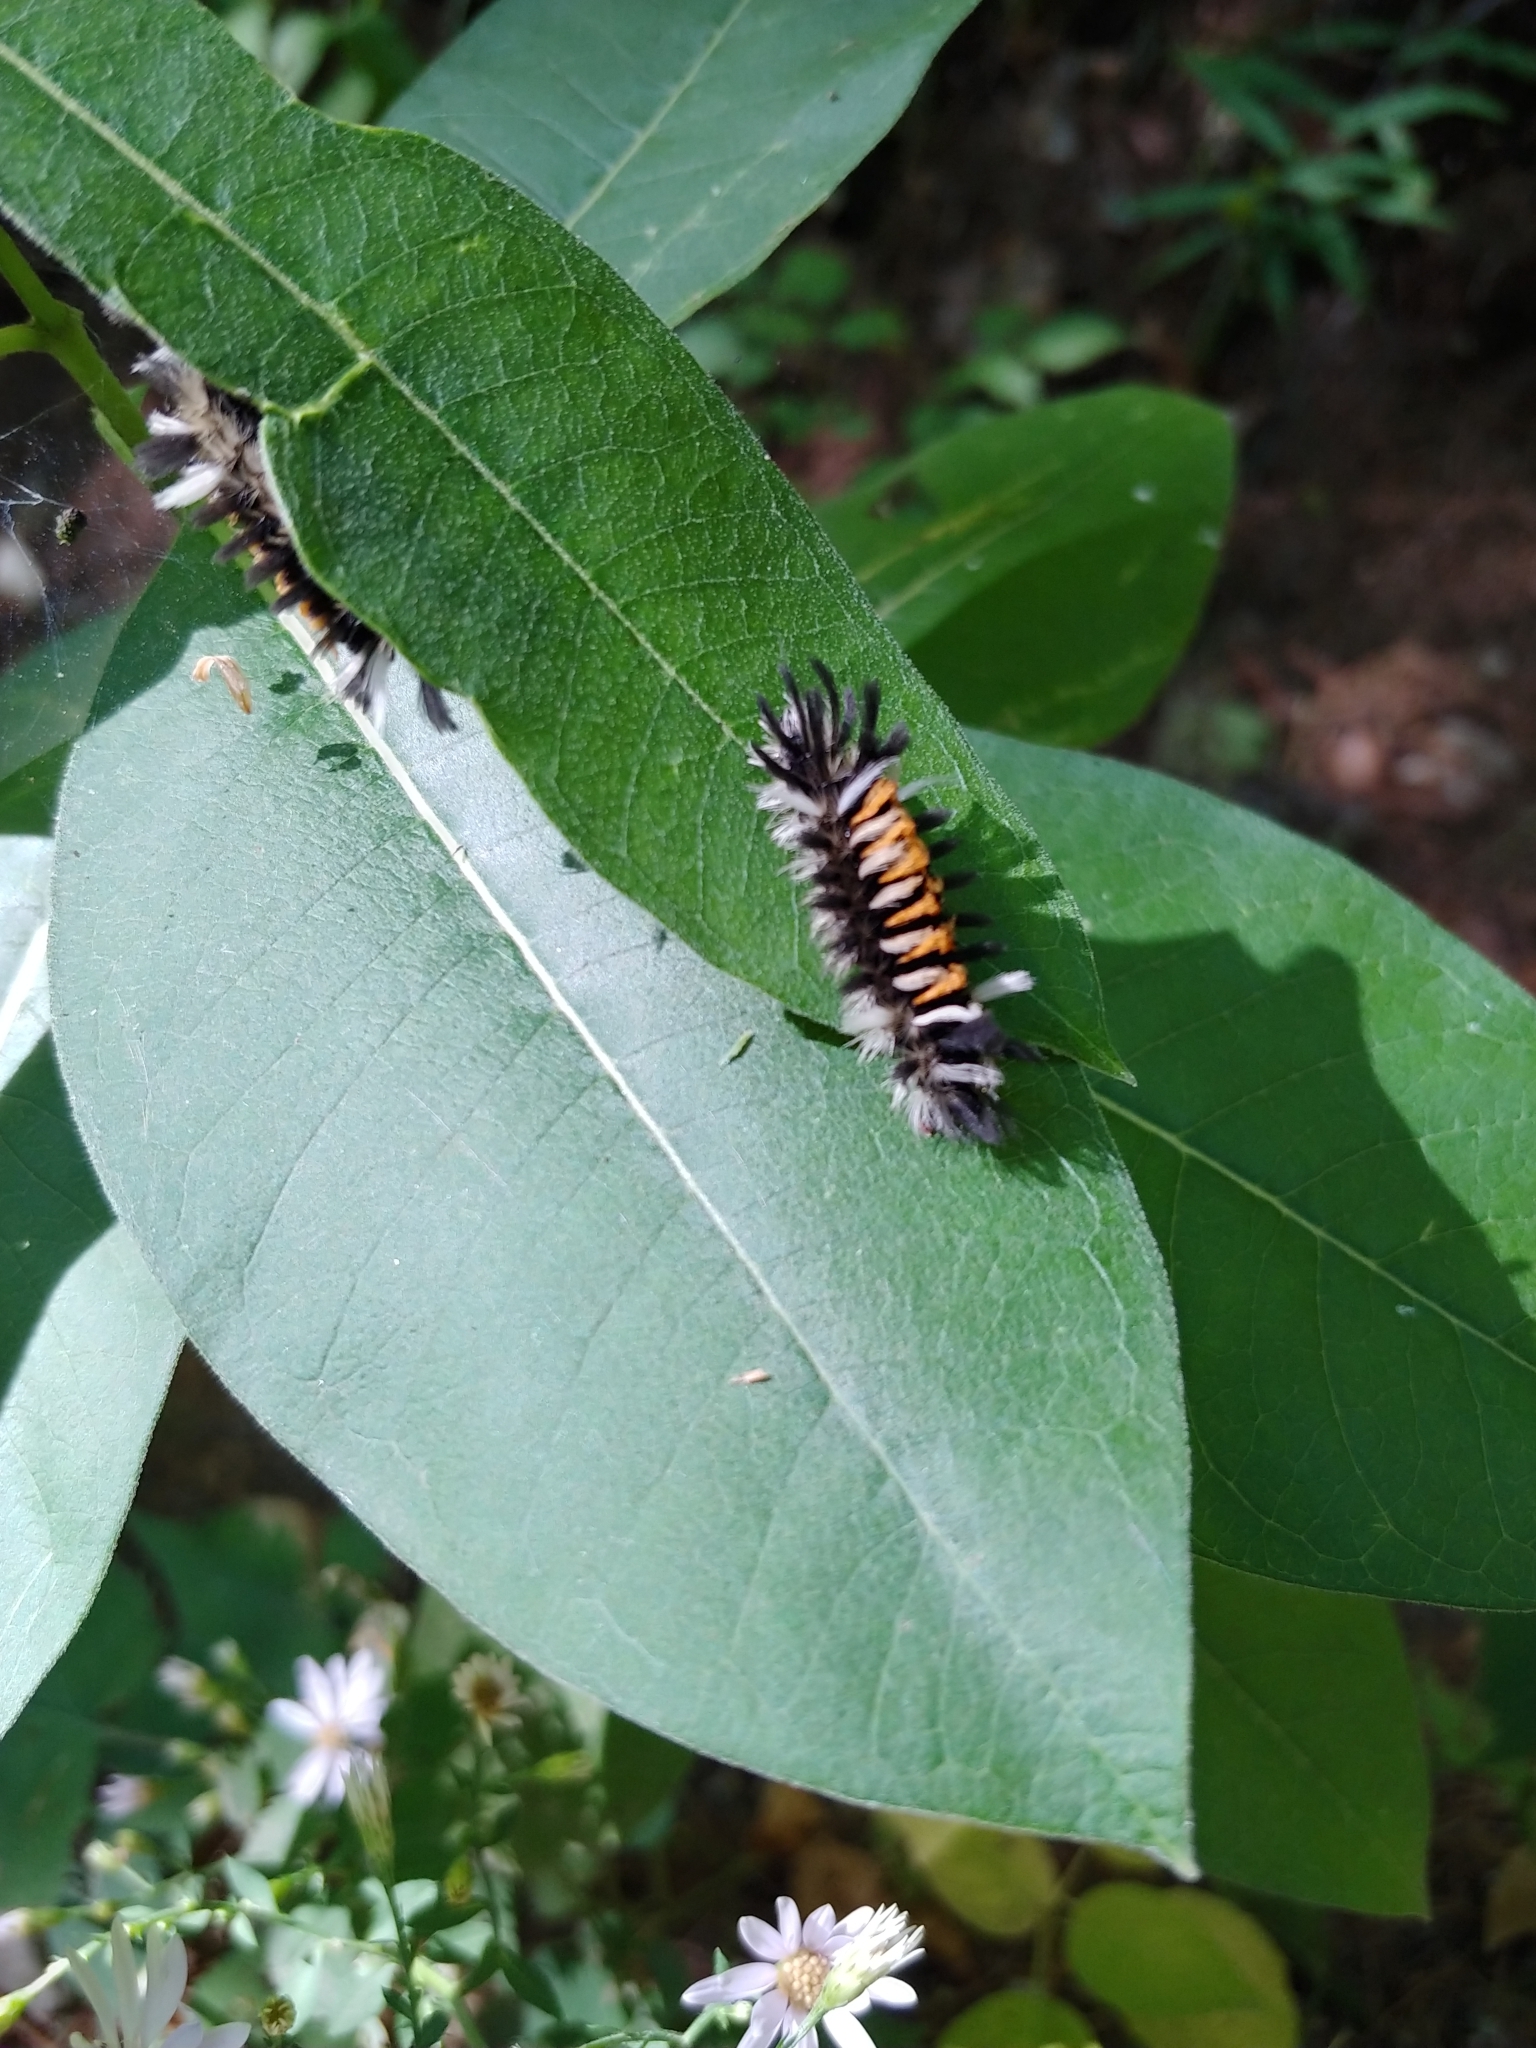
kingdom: Animalia
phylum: Arthropoda
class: Insecta
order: Lepidoptera
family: Erebidae
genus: Euchaetes
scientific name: Euchaetes egle
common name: Milkweed tussock moth
